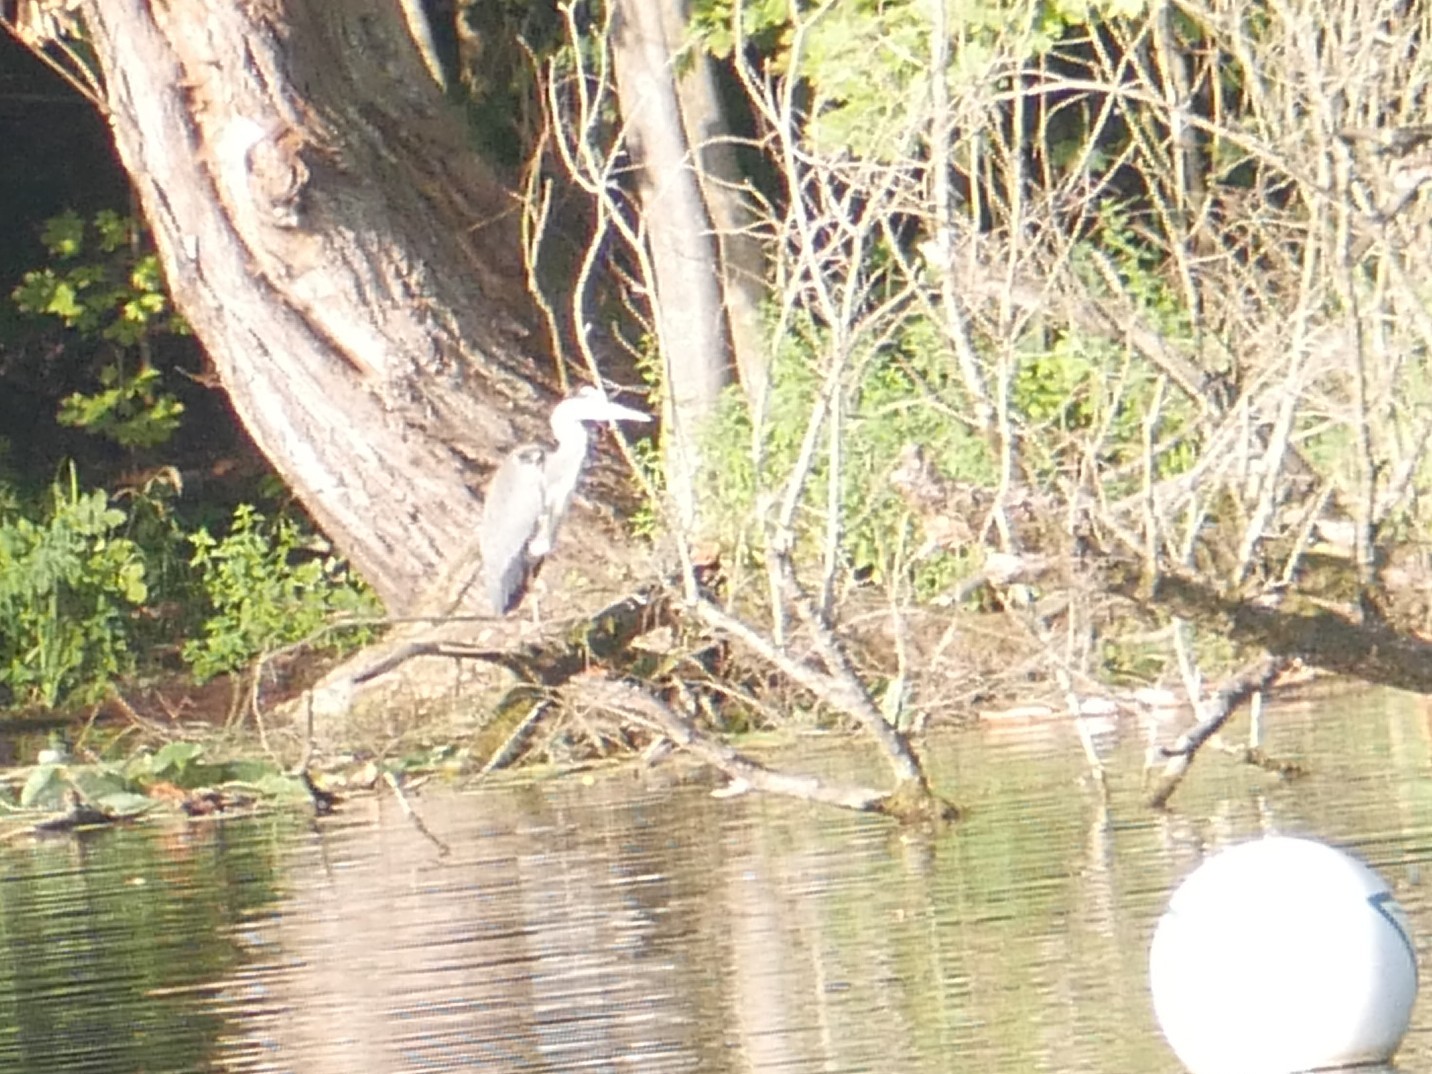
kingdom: Animalia
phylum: Chordata
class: Aves
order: Pelecaniformes
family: Ardeidae
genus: Ardea
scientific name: Ardea cinerea
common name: Grey heron
